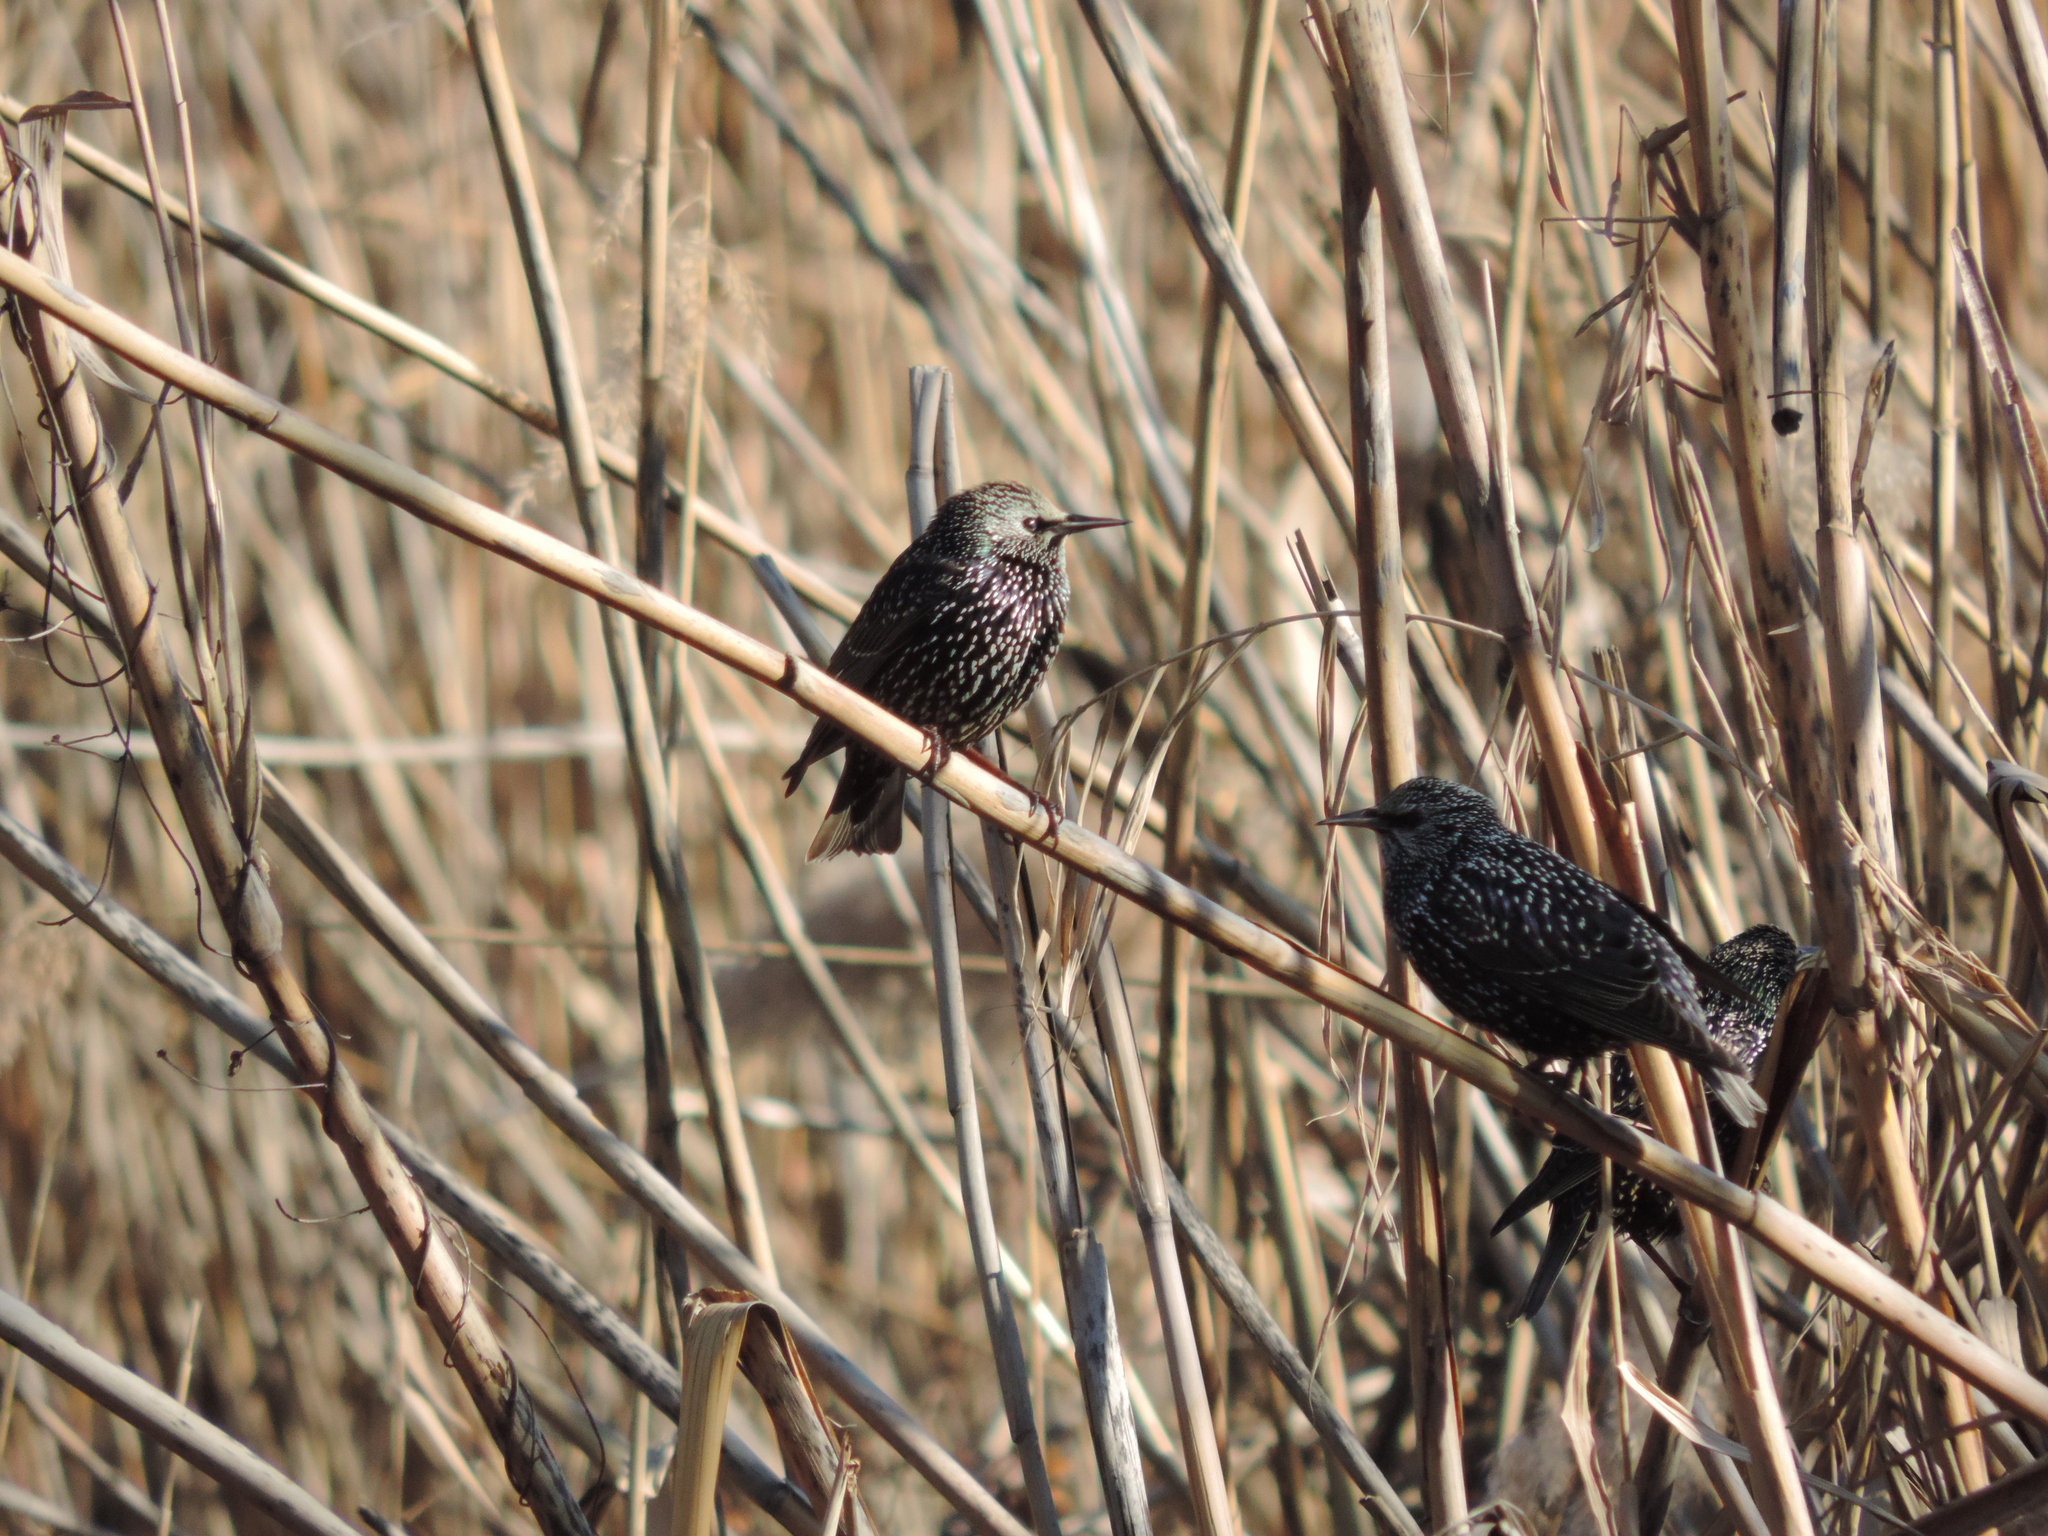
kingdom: Animalia
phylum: Chordata
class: Aves
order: Passeriformes
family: Sturnidae
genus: Sturnus
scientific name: Sturnus vulgaris
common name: Common starling
